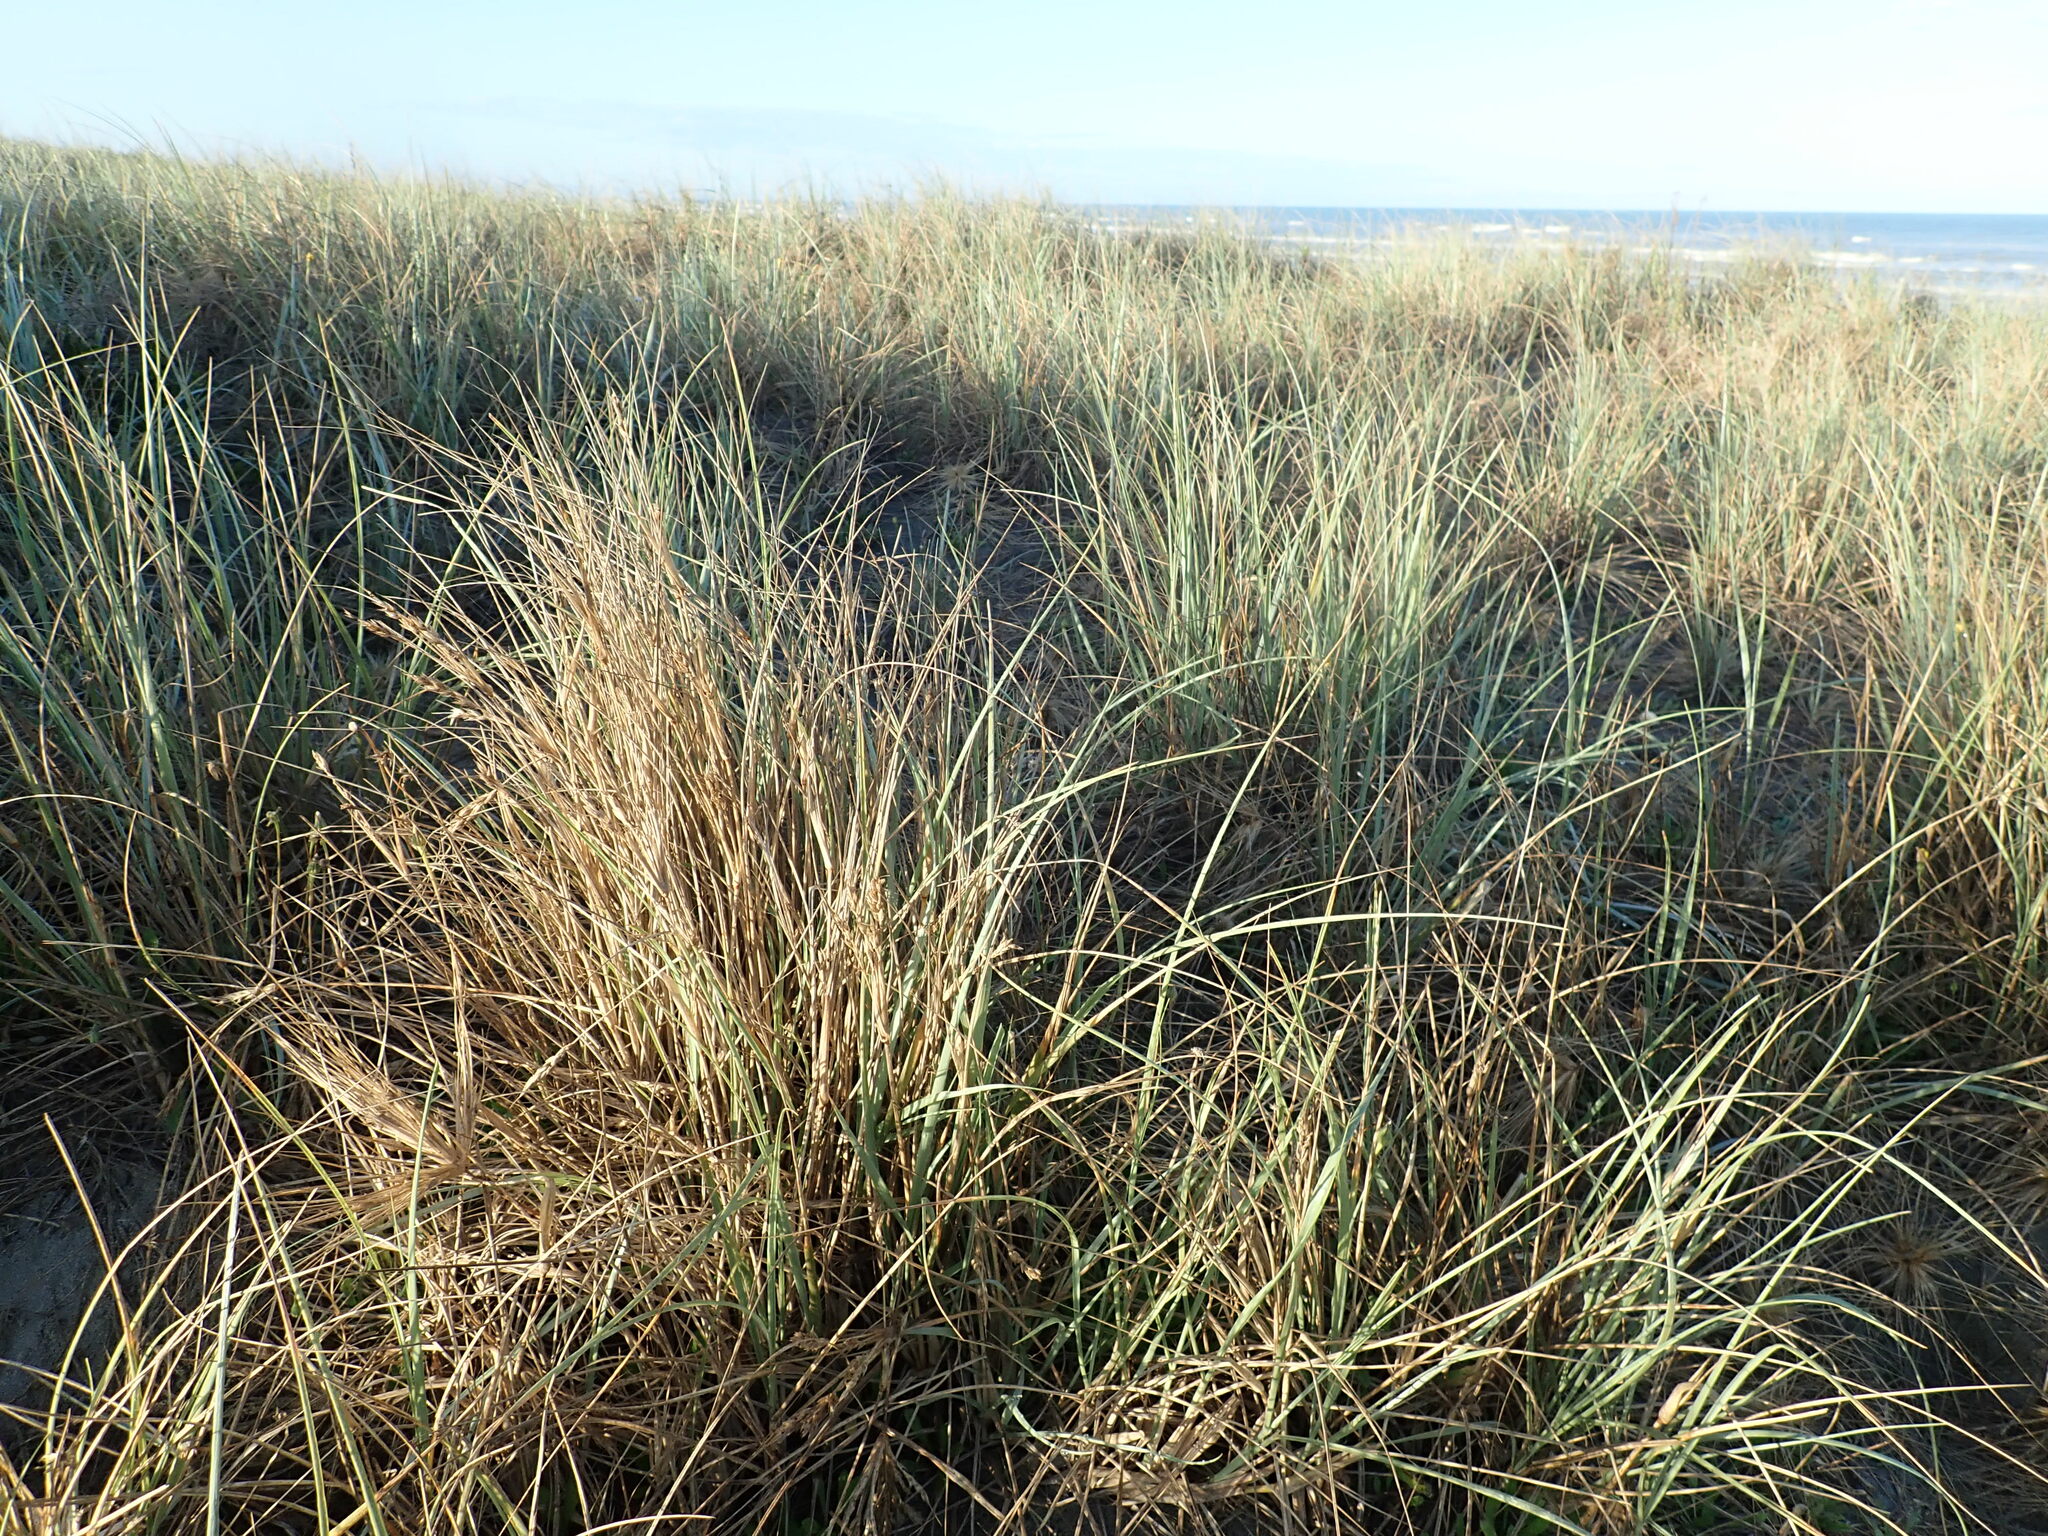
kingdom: Plantae
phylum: Tracheophyta
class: Liliopsida
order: Poales
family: Poaceae
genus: Spinifex
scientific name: Spinifex sericeus
